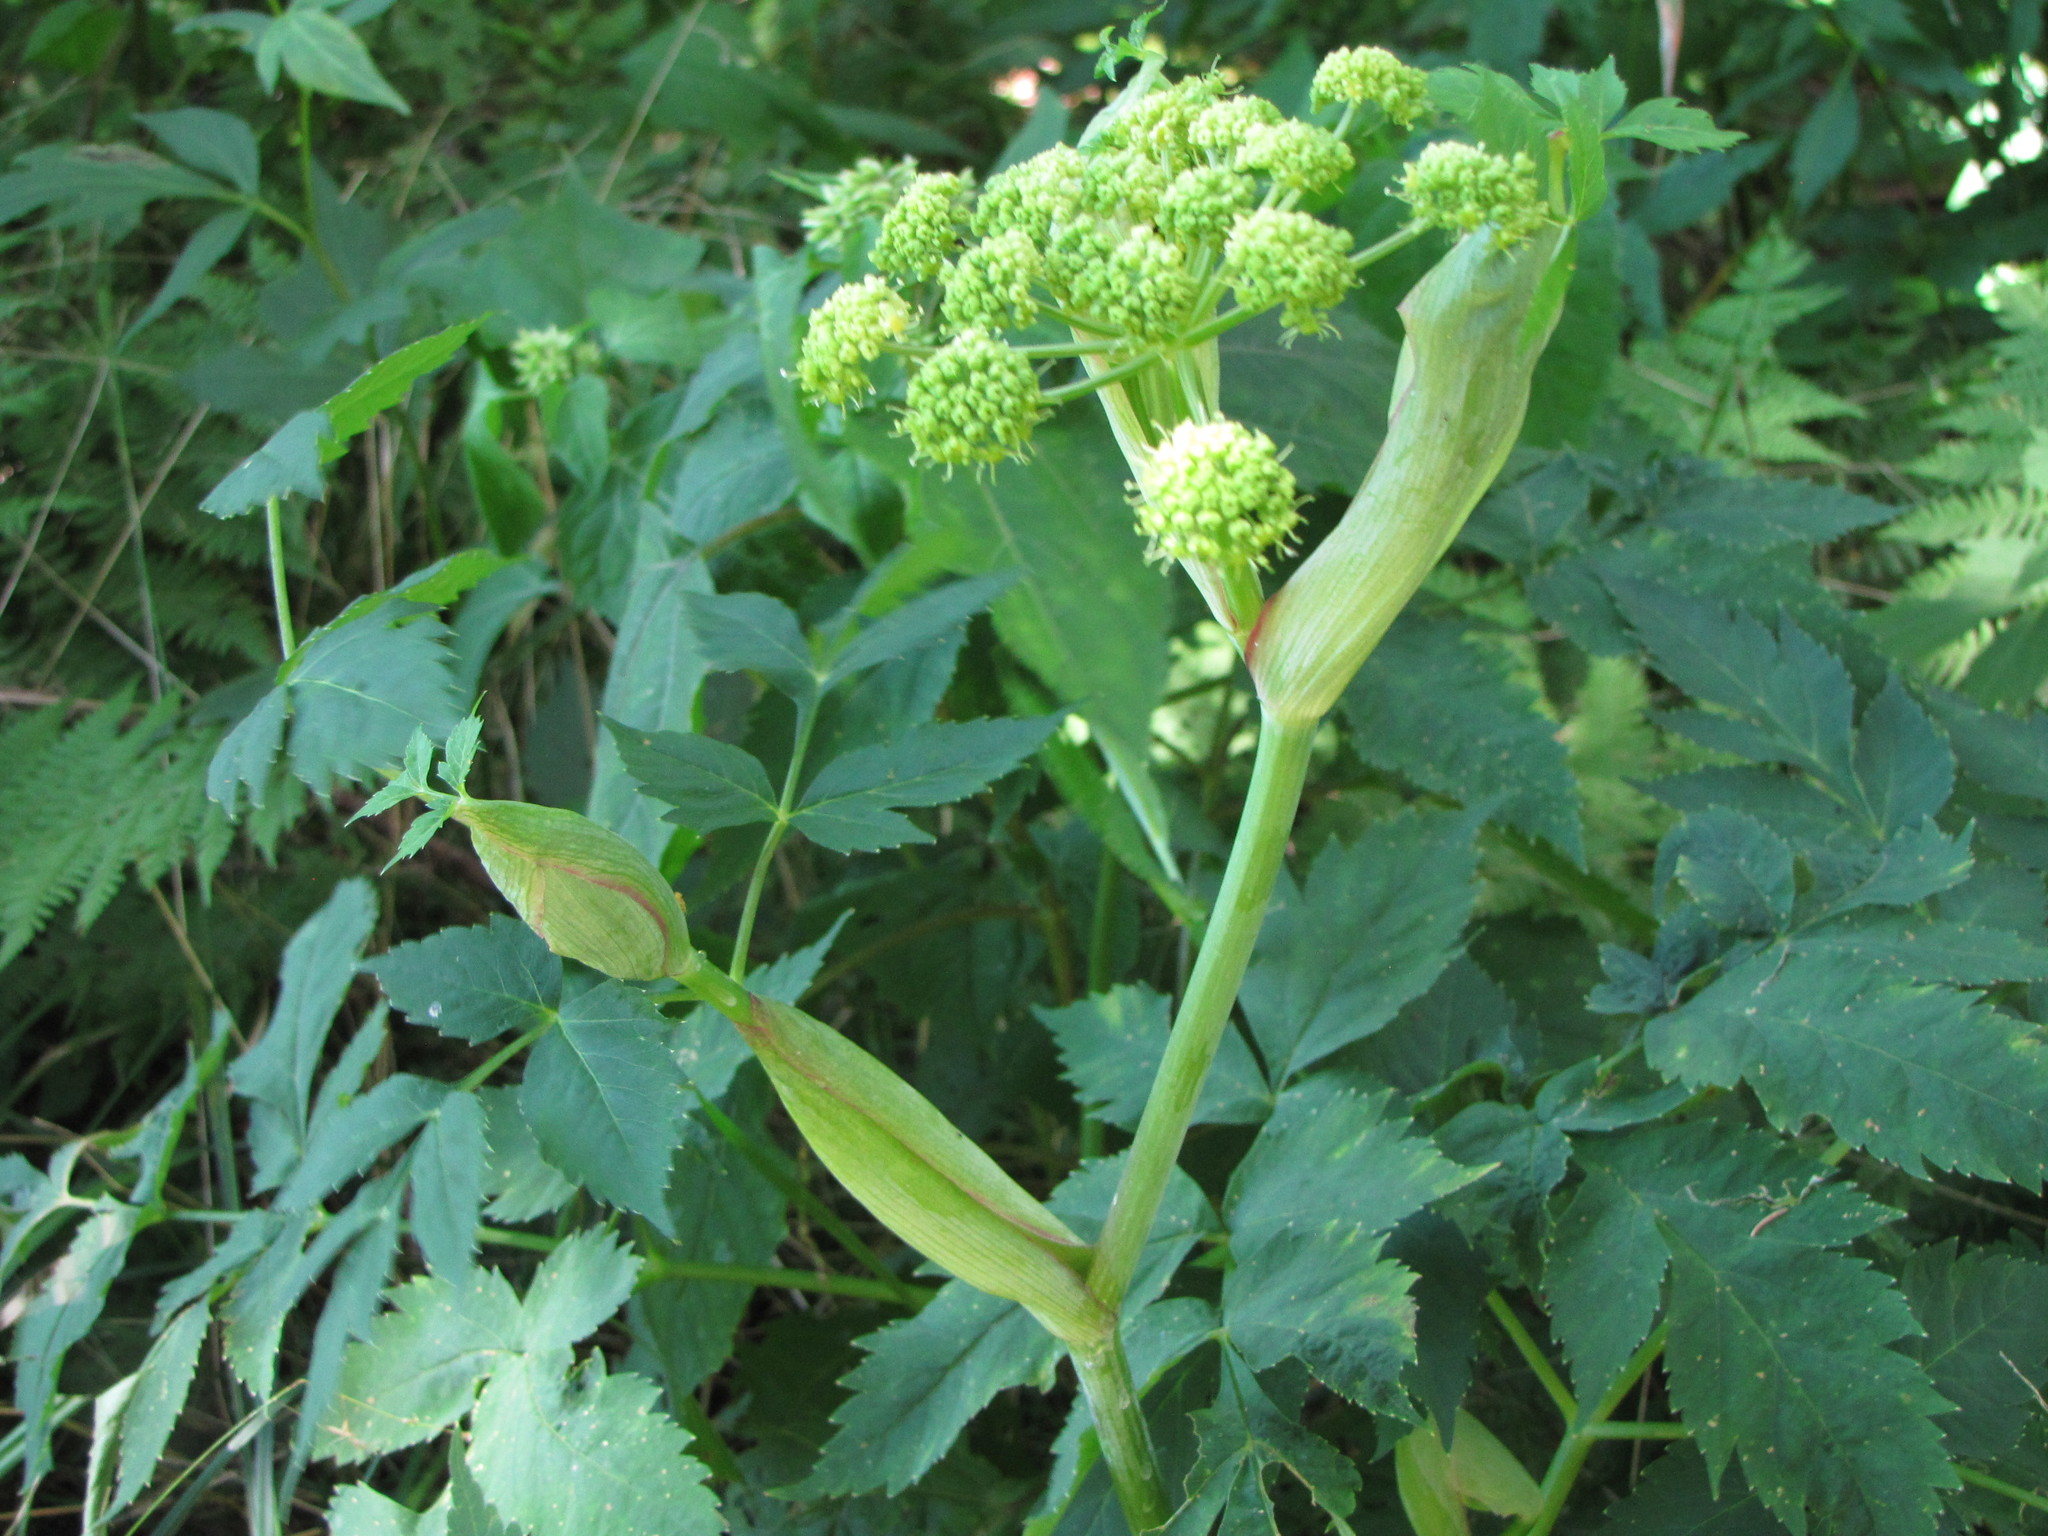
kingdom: Plantae
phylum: Tracheophyta
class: Magnoliopsida
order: Apiales
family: Apiaceae
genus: Angelica
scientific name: Angelica triquinata
